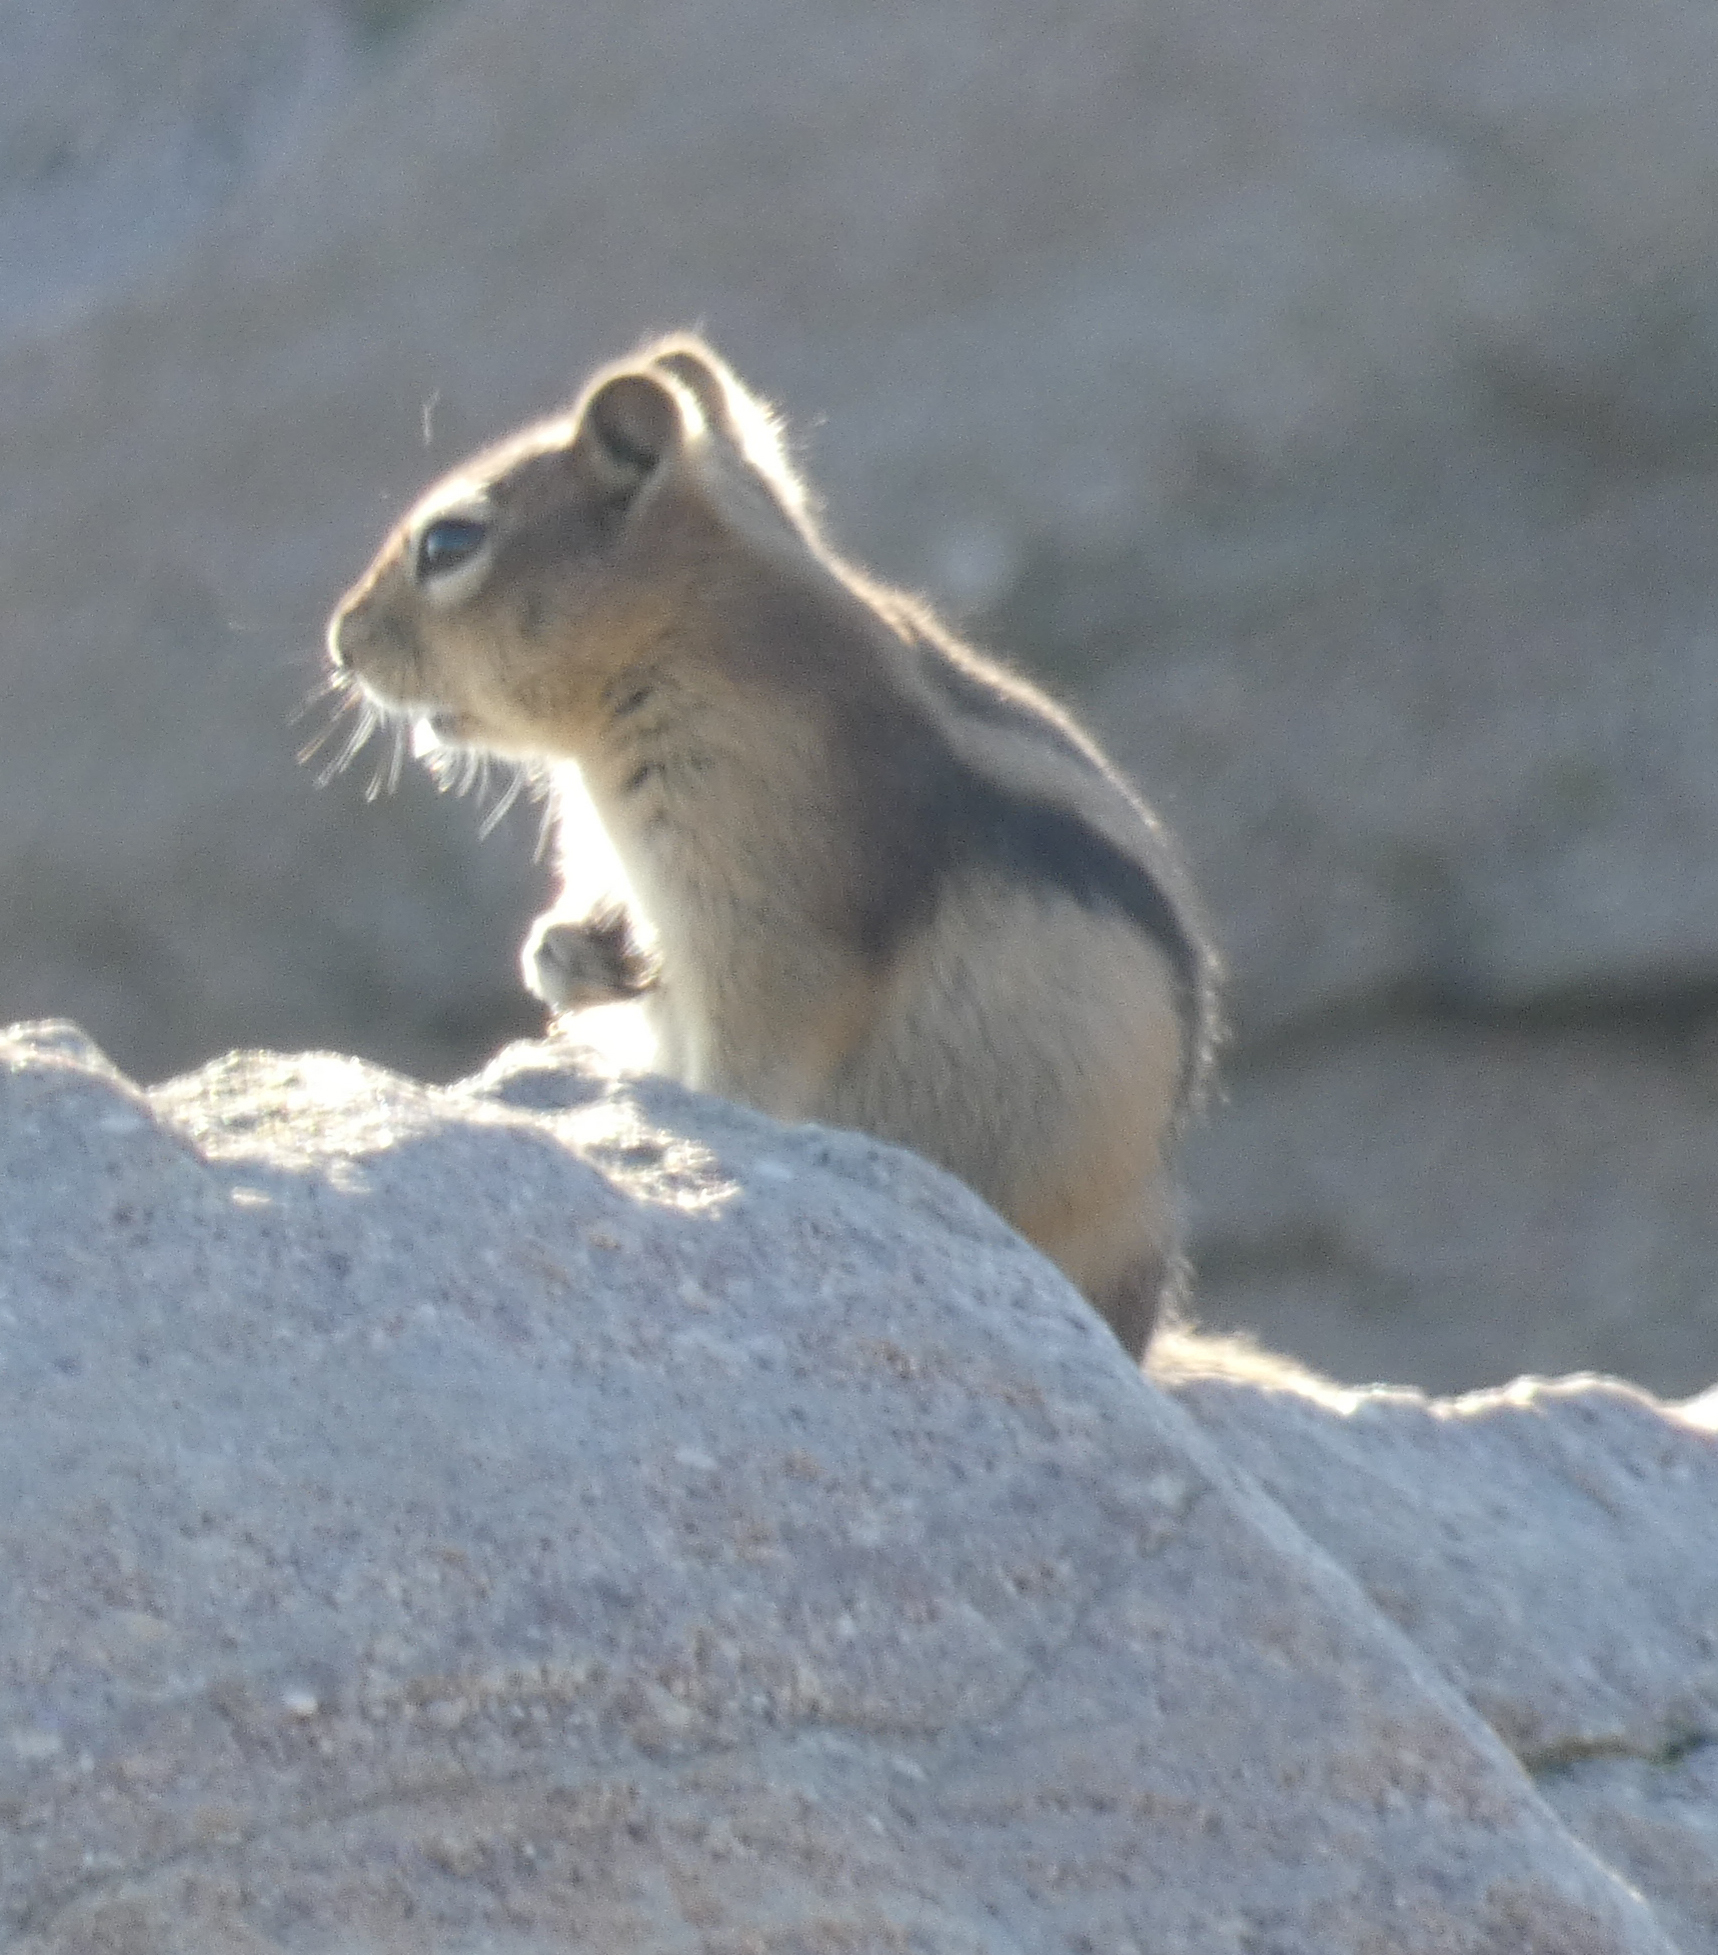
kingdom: Animalia
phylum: Chordata
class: Mammalia
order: Rodentia
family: Sciuridae
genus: Callospermophilus
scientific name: Callospermophilus lateralis
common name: Golden-mantled ground squirrel
